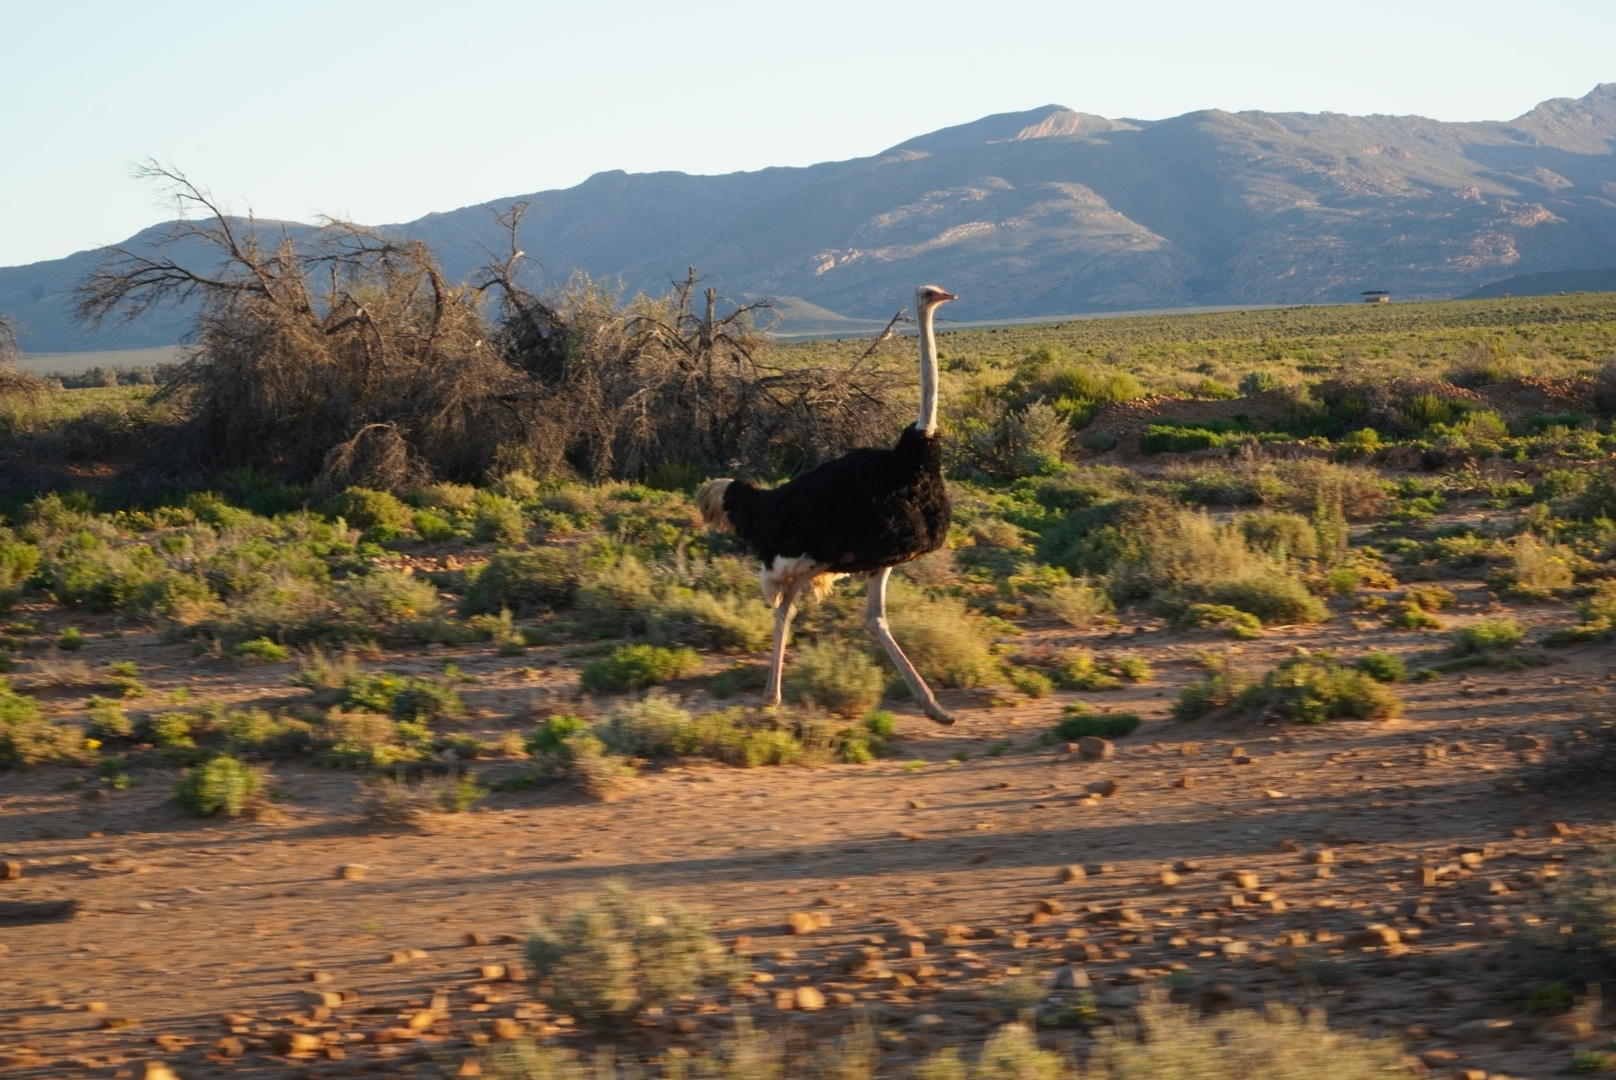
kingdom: Animalia
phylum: Chordata
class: Aves
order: Struthioniformes
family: Struthionidae
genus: Struthio
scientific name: Struthio camelus
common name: Common ostrich
